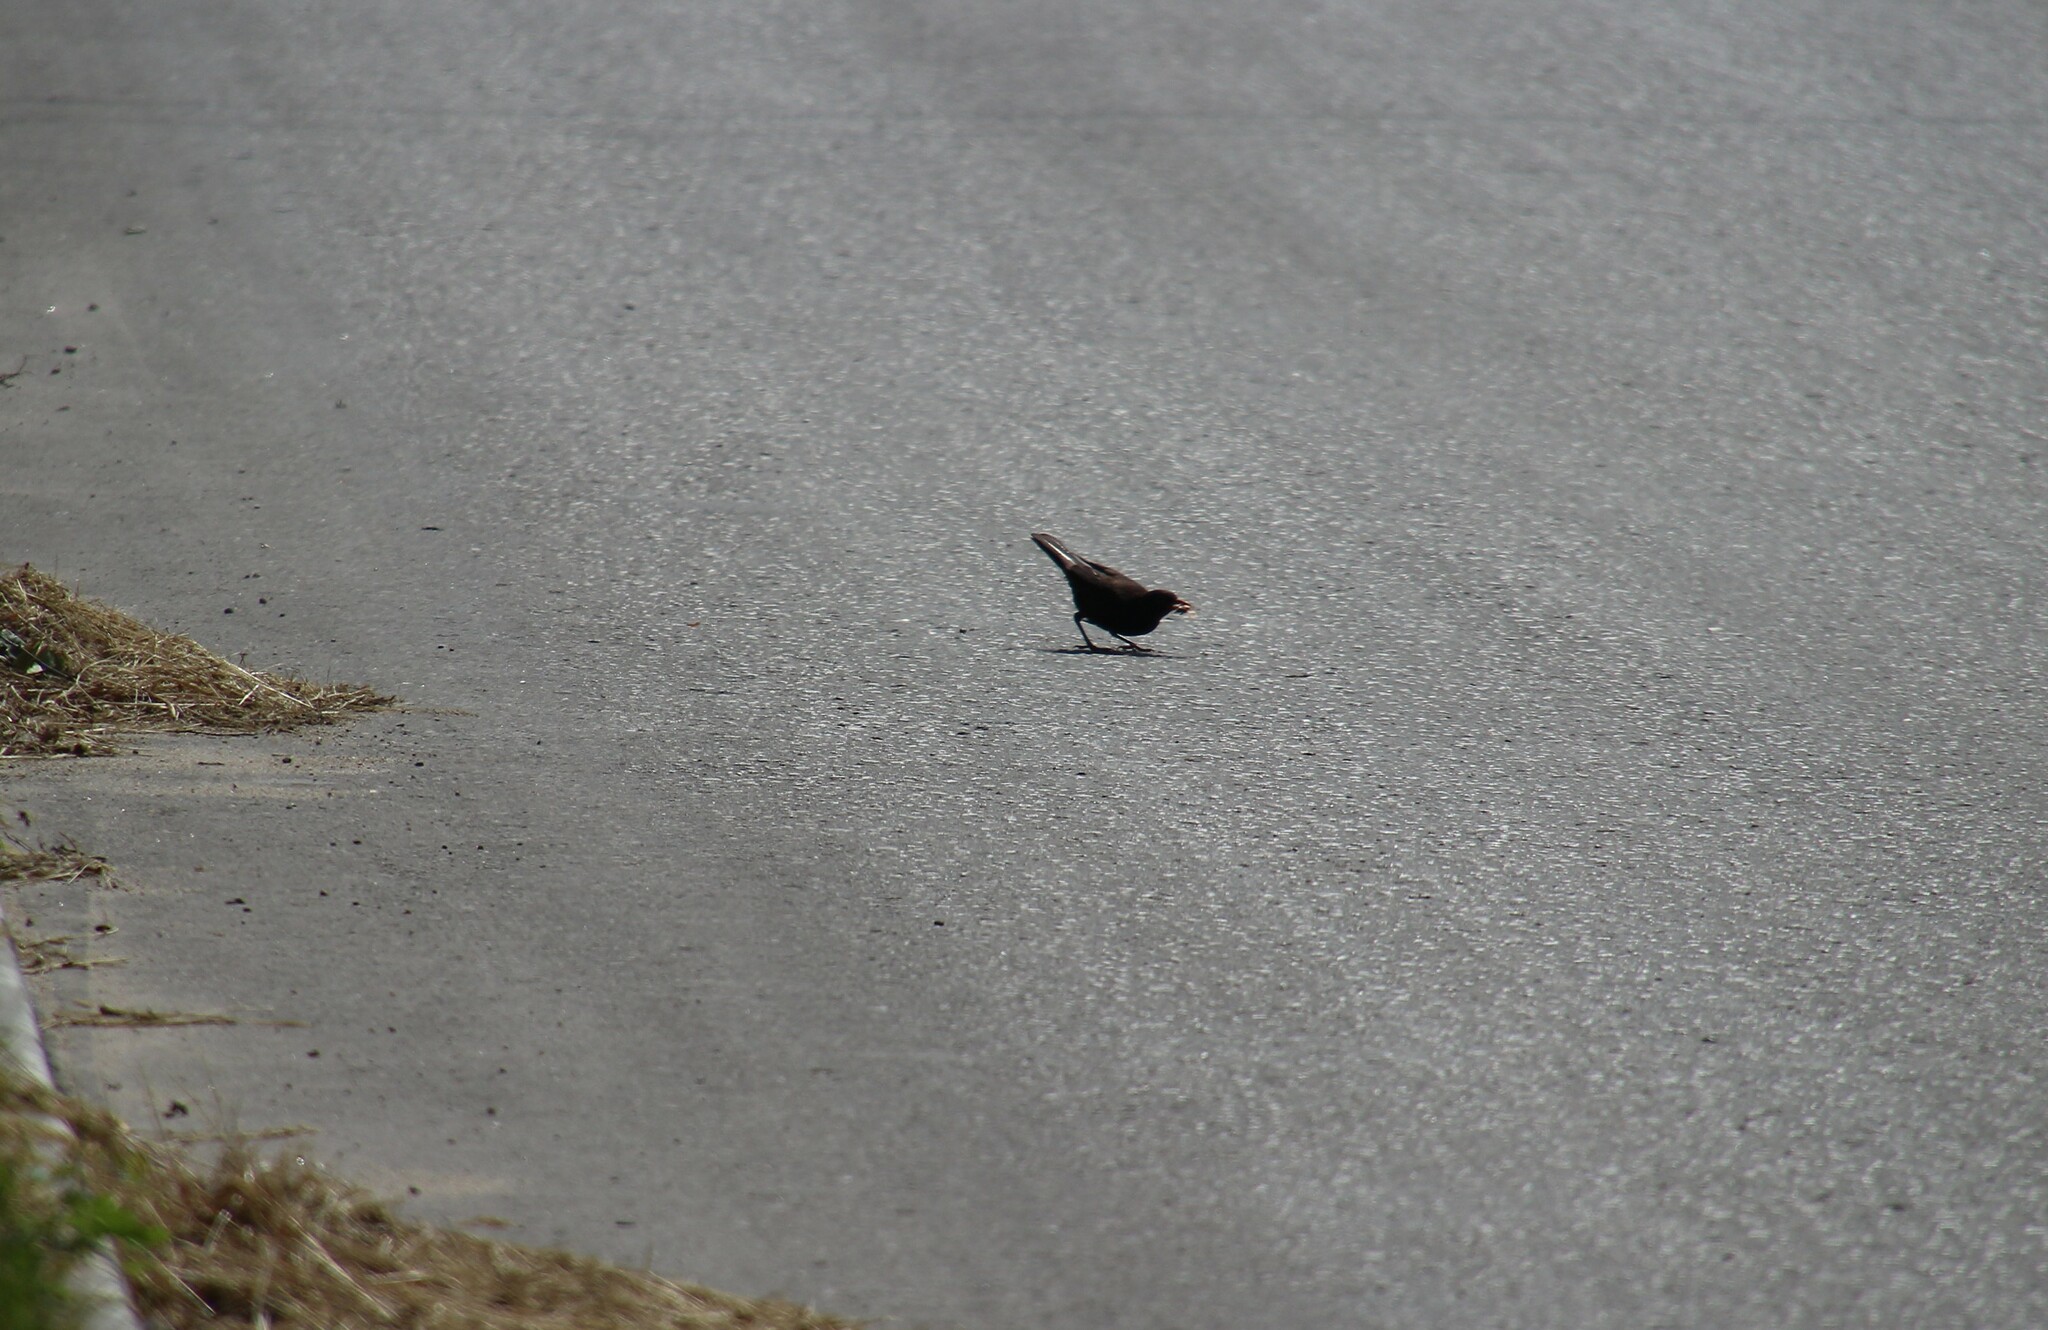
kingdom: Animalia
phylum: Chordata
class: Aves
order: Passeriformes
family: Turdidae
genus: Turdus
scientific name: Turdus merula
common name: Common blackbird
